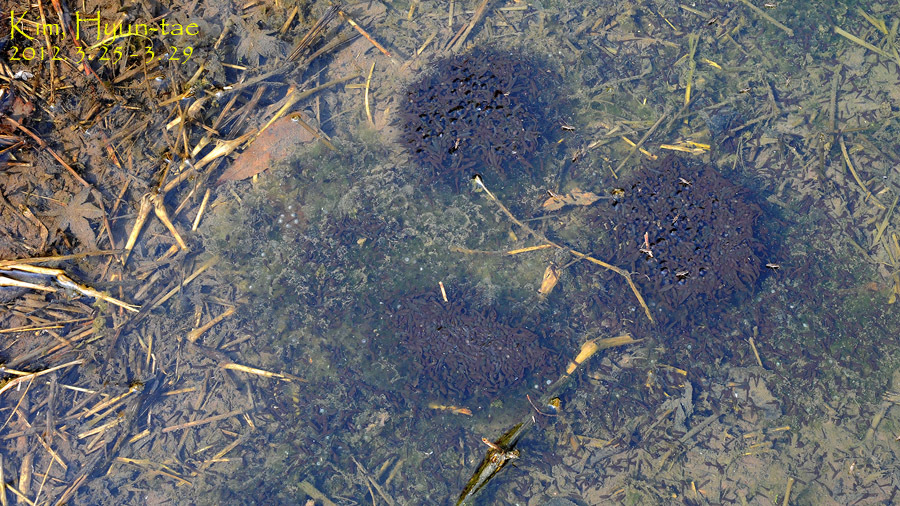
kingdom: Animalia
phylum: Chordata
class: Amphibia
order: Anura
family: Ranidae
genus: Rana
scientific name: Rana uenoi
